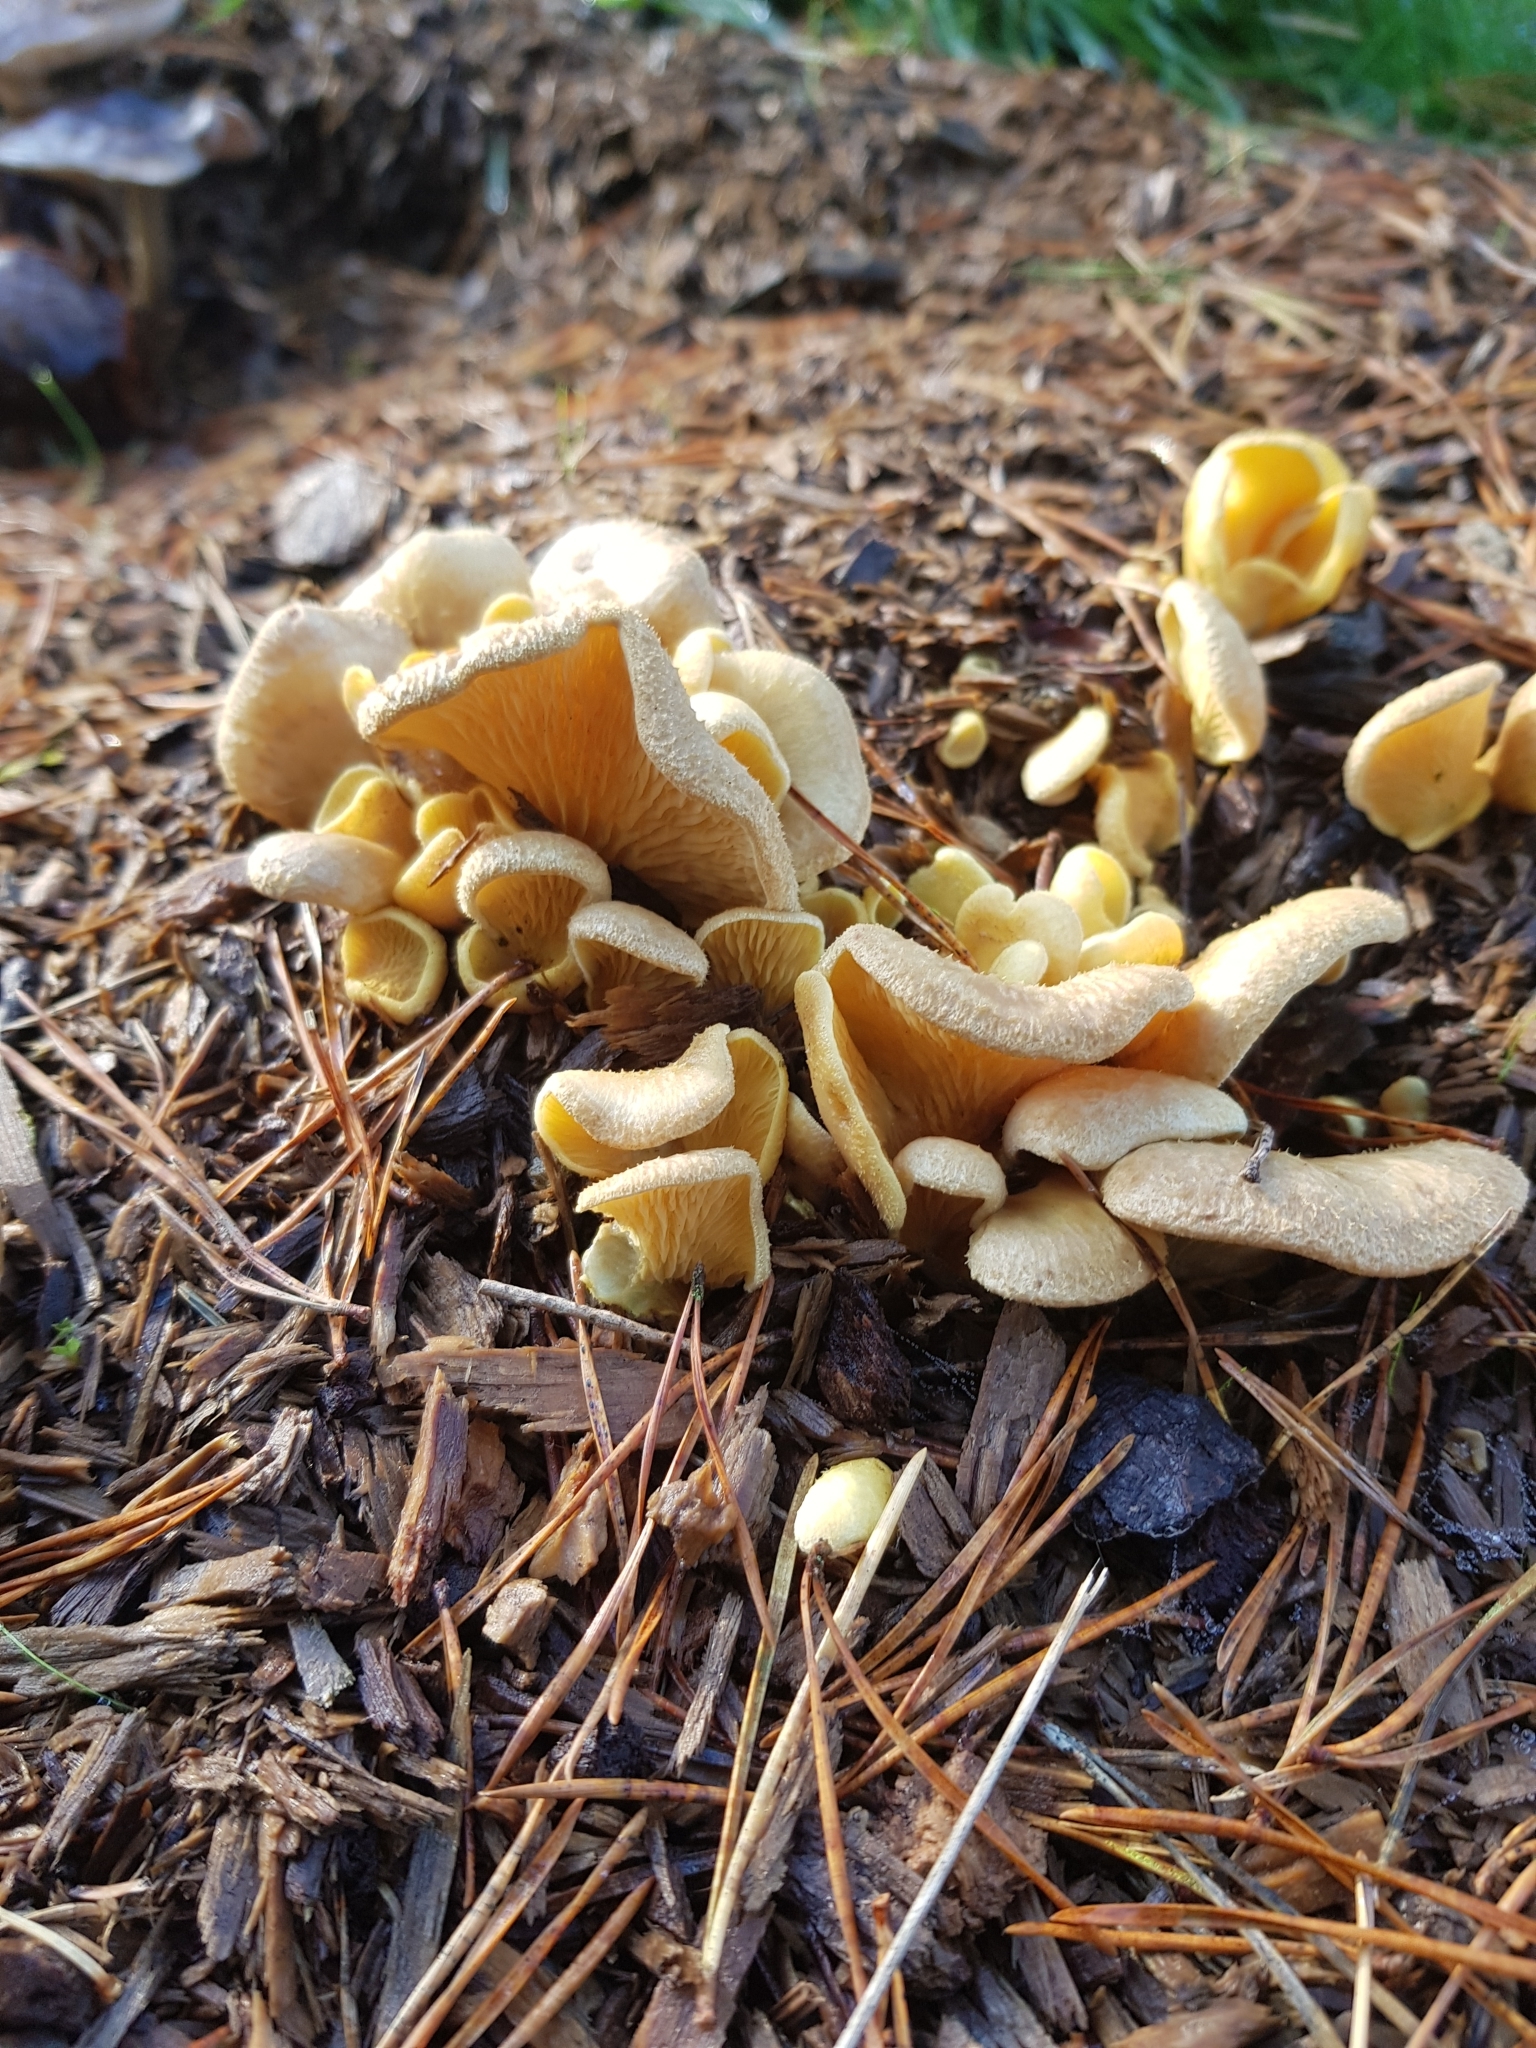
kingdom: Fungi
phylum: Basidiomycota
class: Agaricomycetes
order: Boletales
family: Tapinellaceae
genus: Tapinella
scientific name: Tapinella panuoides
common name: Oyster rollrim
